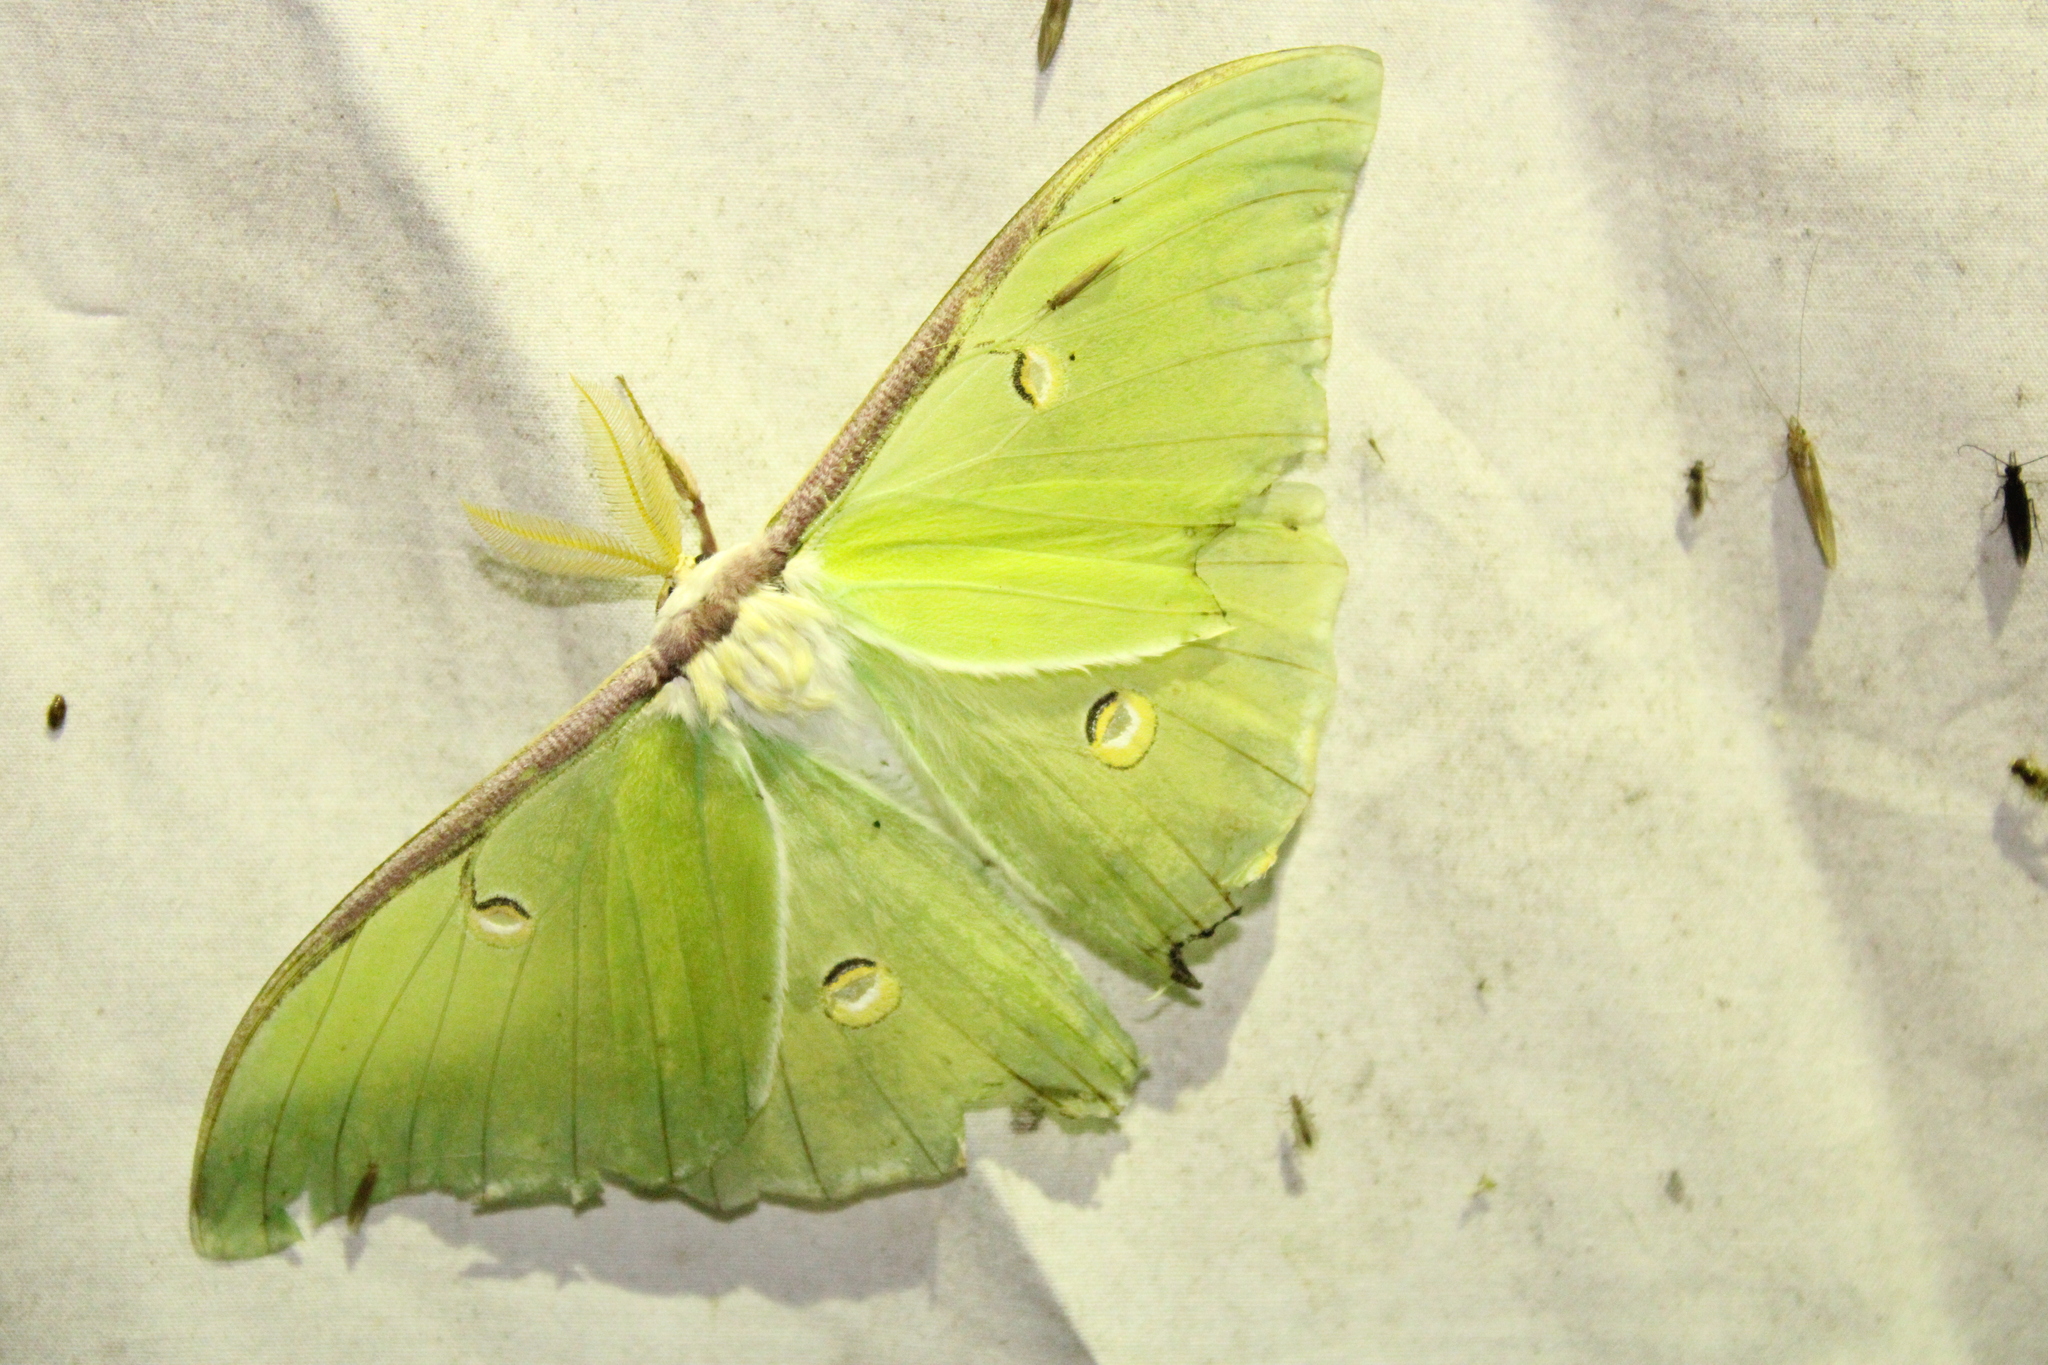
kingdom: Animalia
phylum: Arthropoda
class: Insecta
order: Lepidoptera
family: Saturniidae
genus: Actias
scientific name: Actias luna
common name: Luna moth
